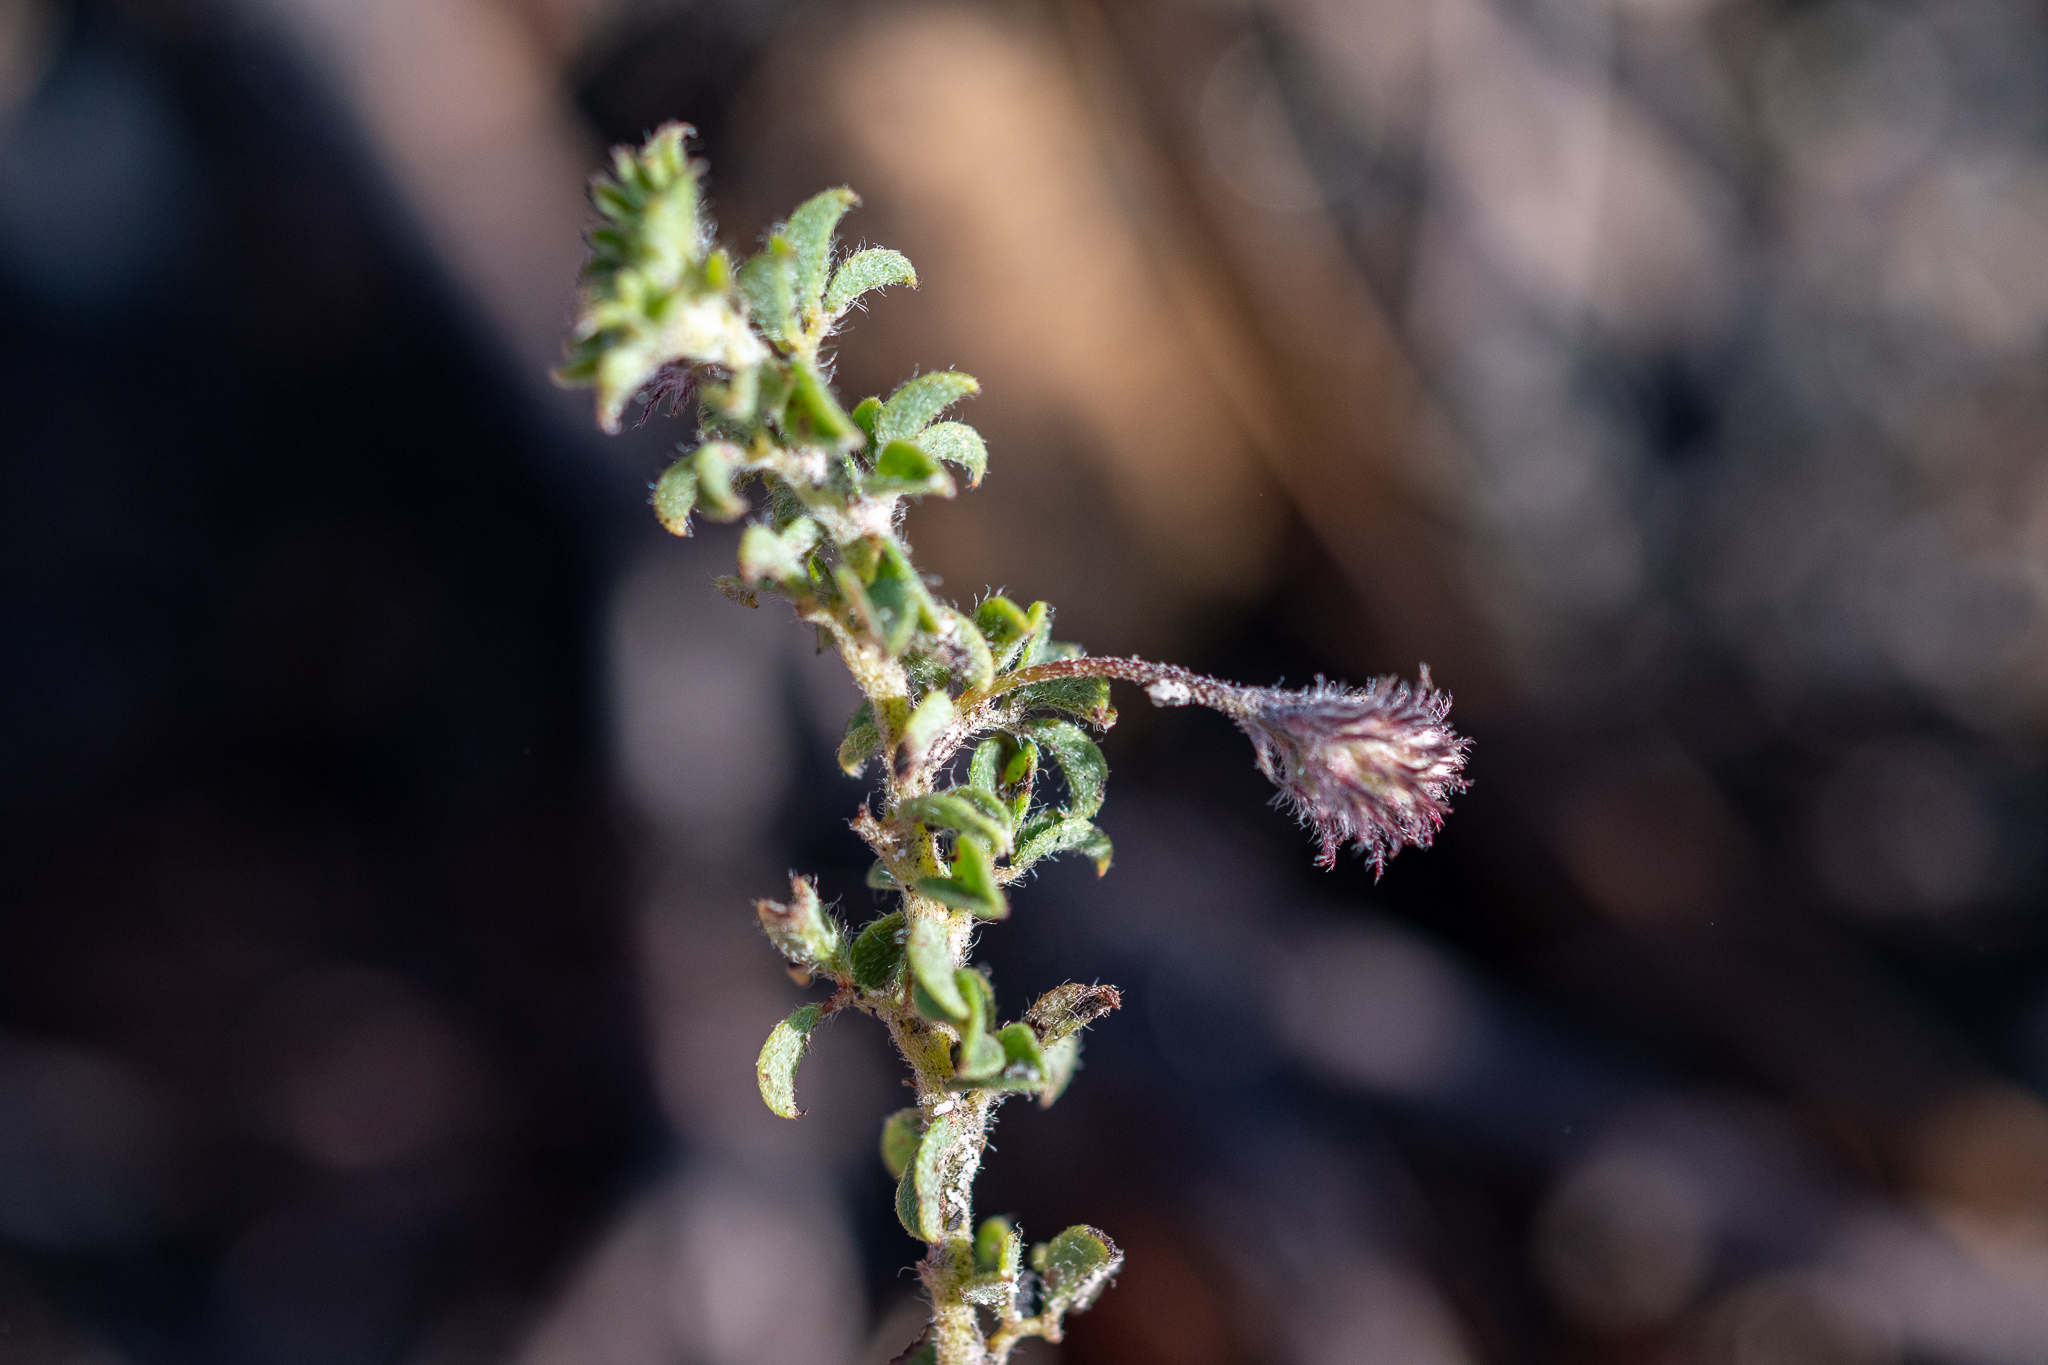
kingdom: Plantae
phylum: Tracheophyta
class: Magnoliopsida
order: Fabales
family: Fabaceae
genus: Indigofera
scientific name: Indigofera alopecuroides
